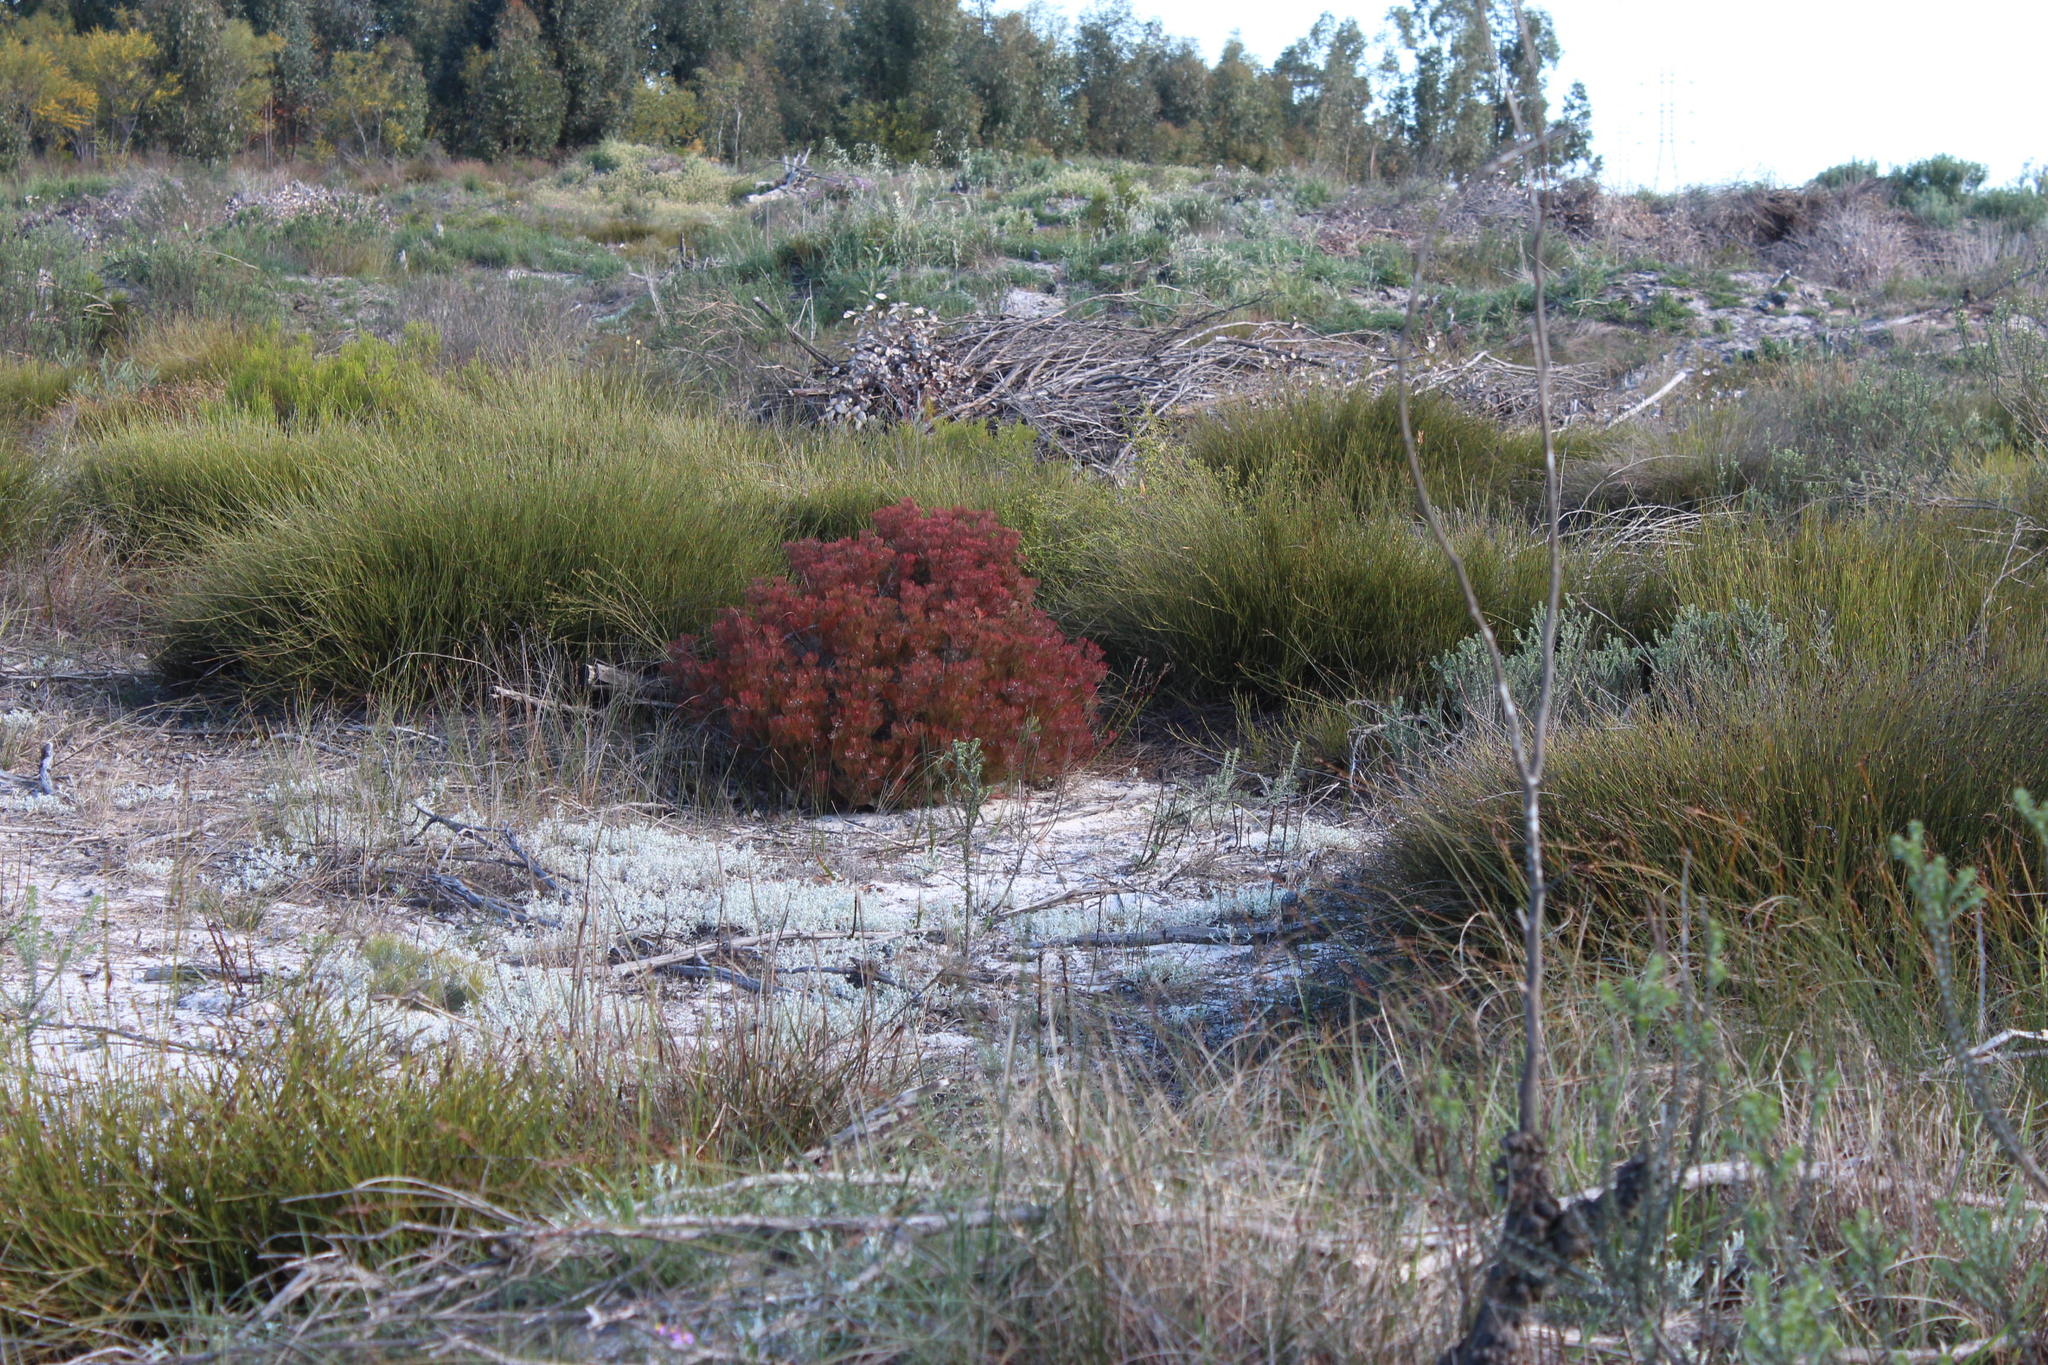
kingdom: Plantae
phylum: Tracheophyta
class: Magnoliopsida
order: Proteales
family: Proteaceae
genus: Serruria
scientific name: Serruria fasciflora
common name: Common pin spiderhead
